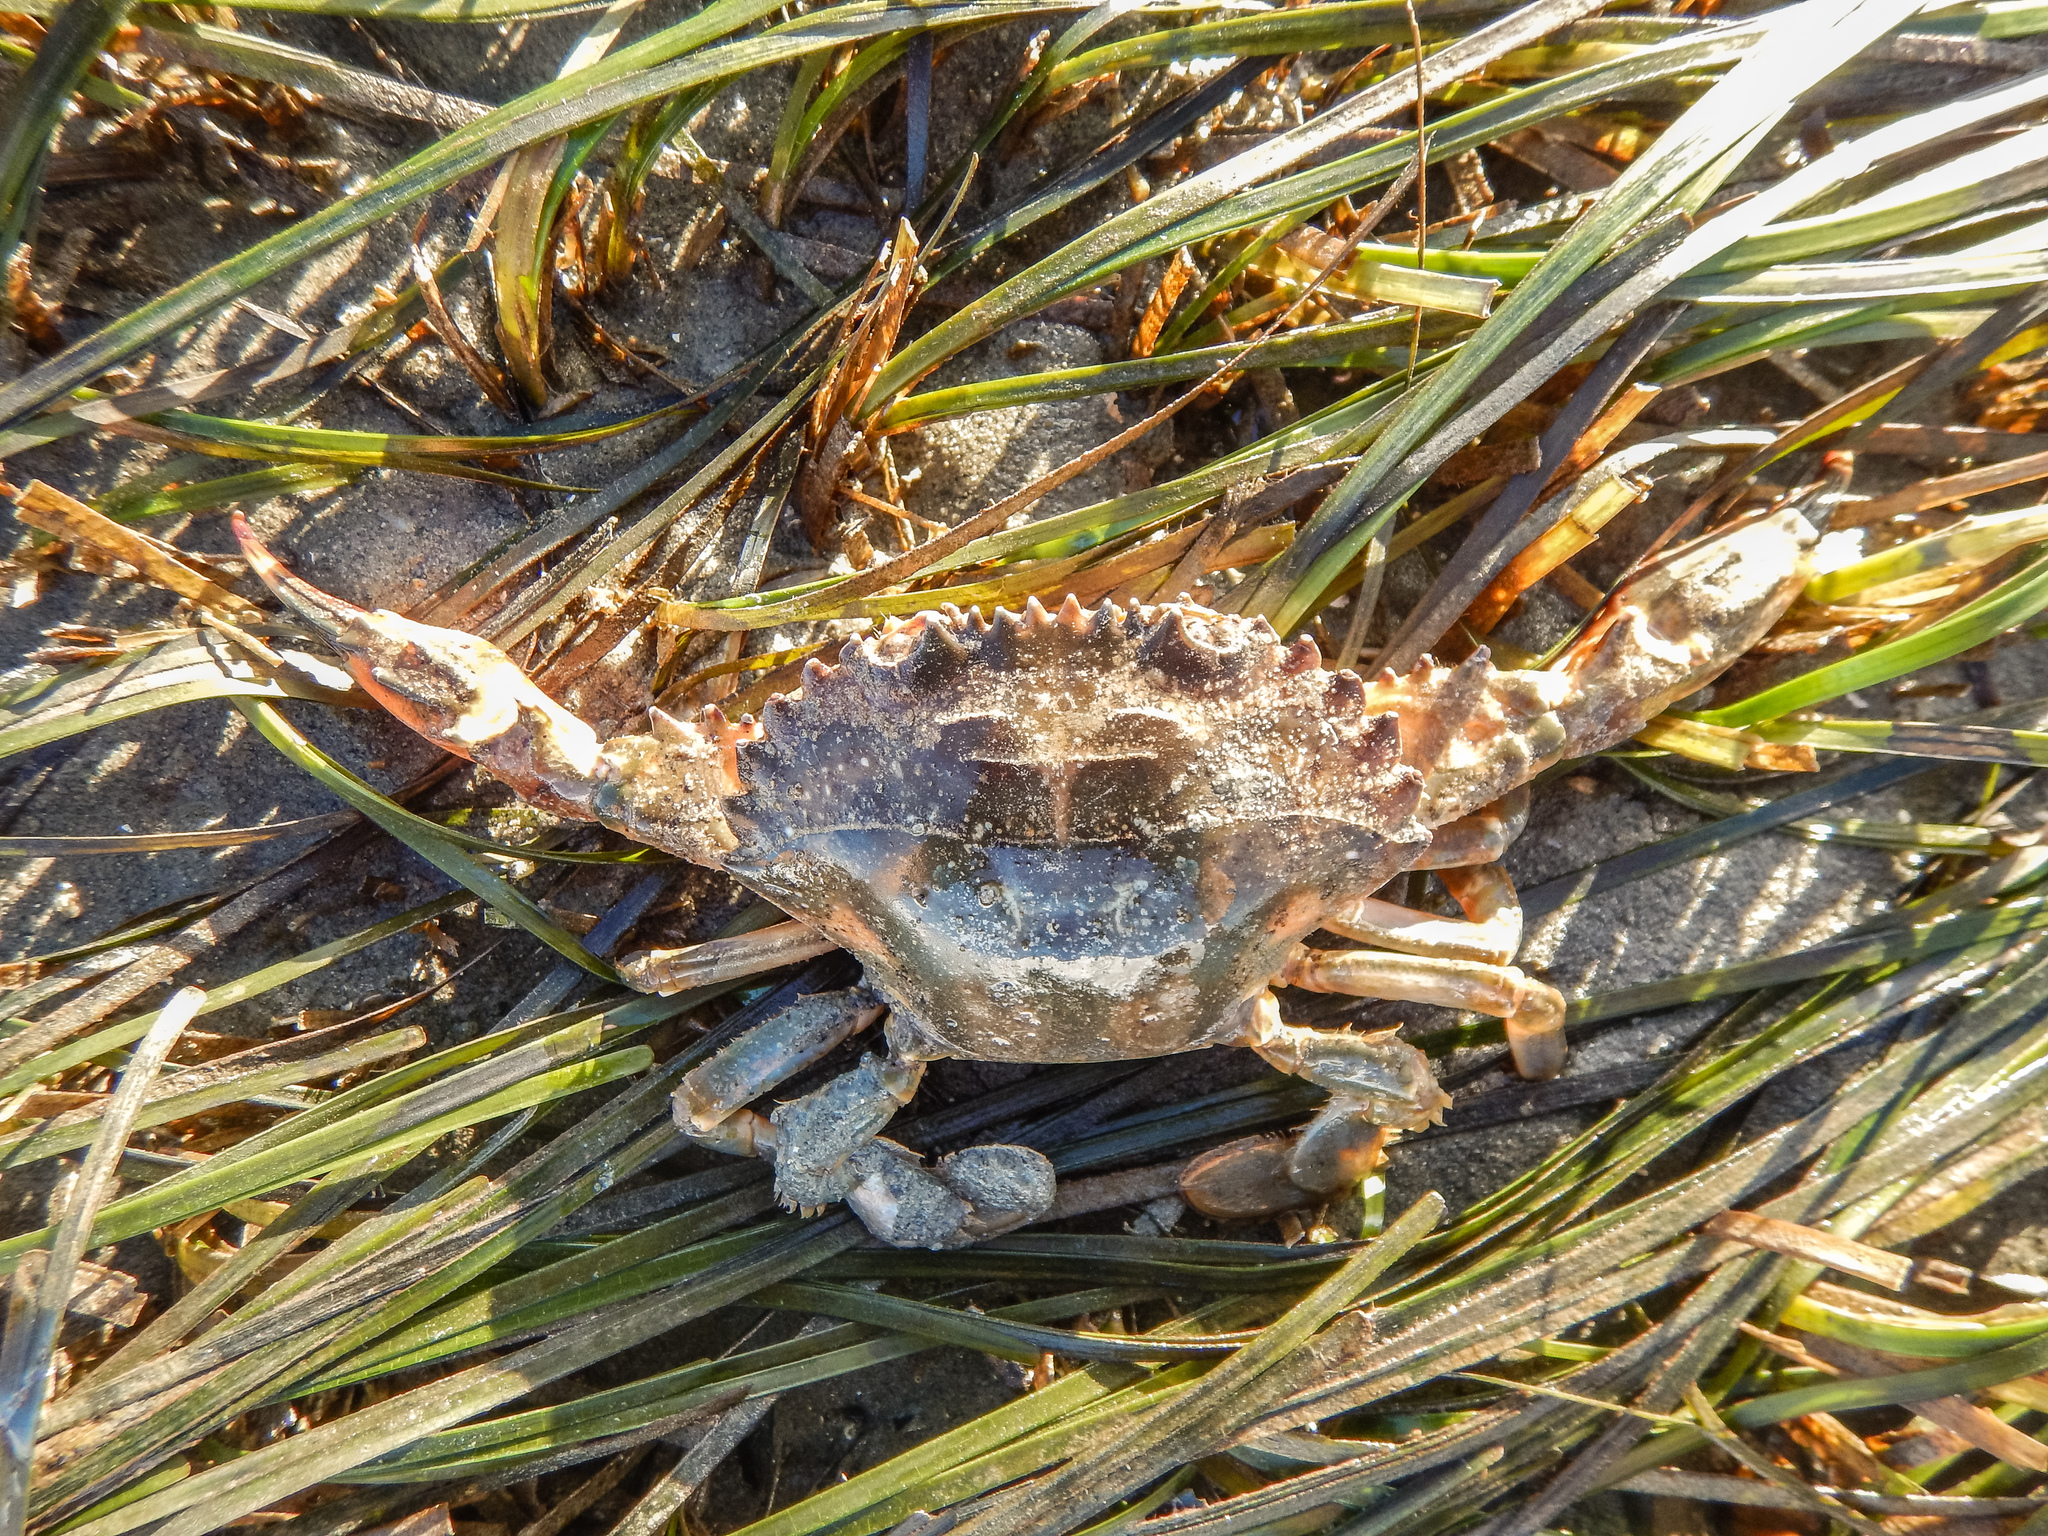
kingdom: Animalia
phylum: Arthropoda
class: Malacostraca
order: Decapoda
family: Portunidae
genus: Charybdis
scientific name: Charybdis japonica
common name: Asian paddle crab
